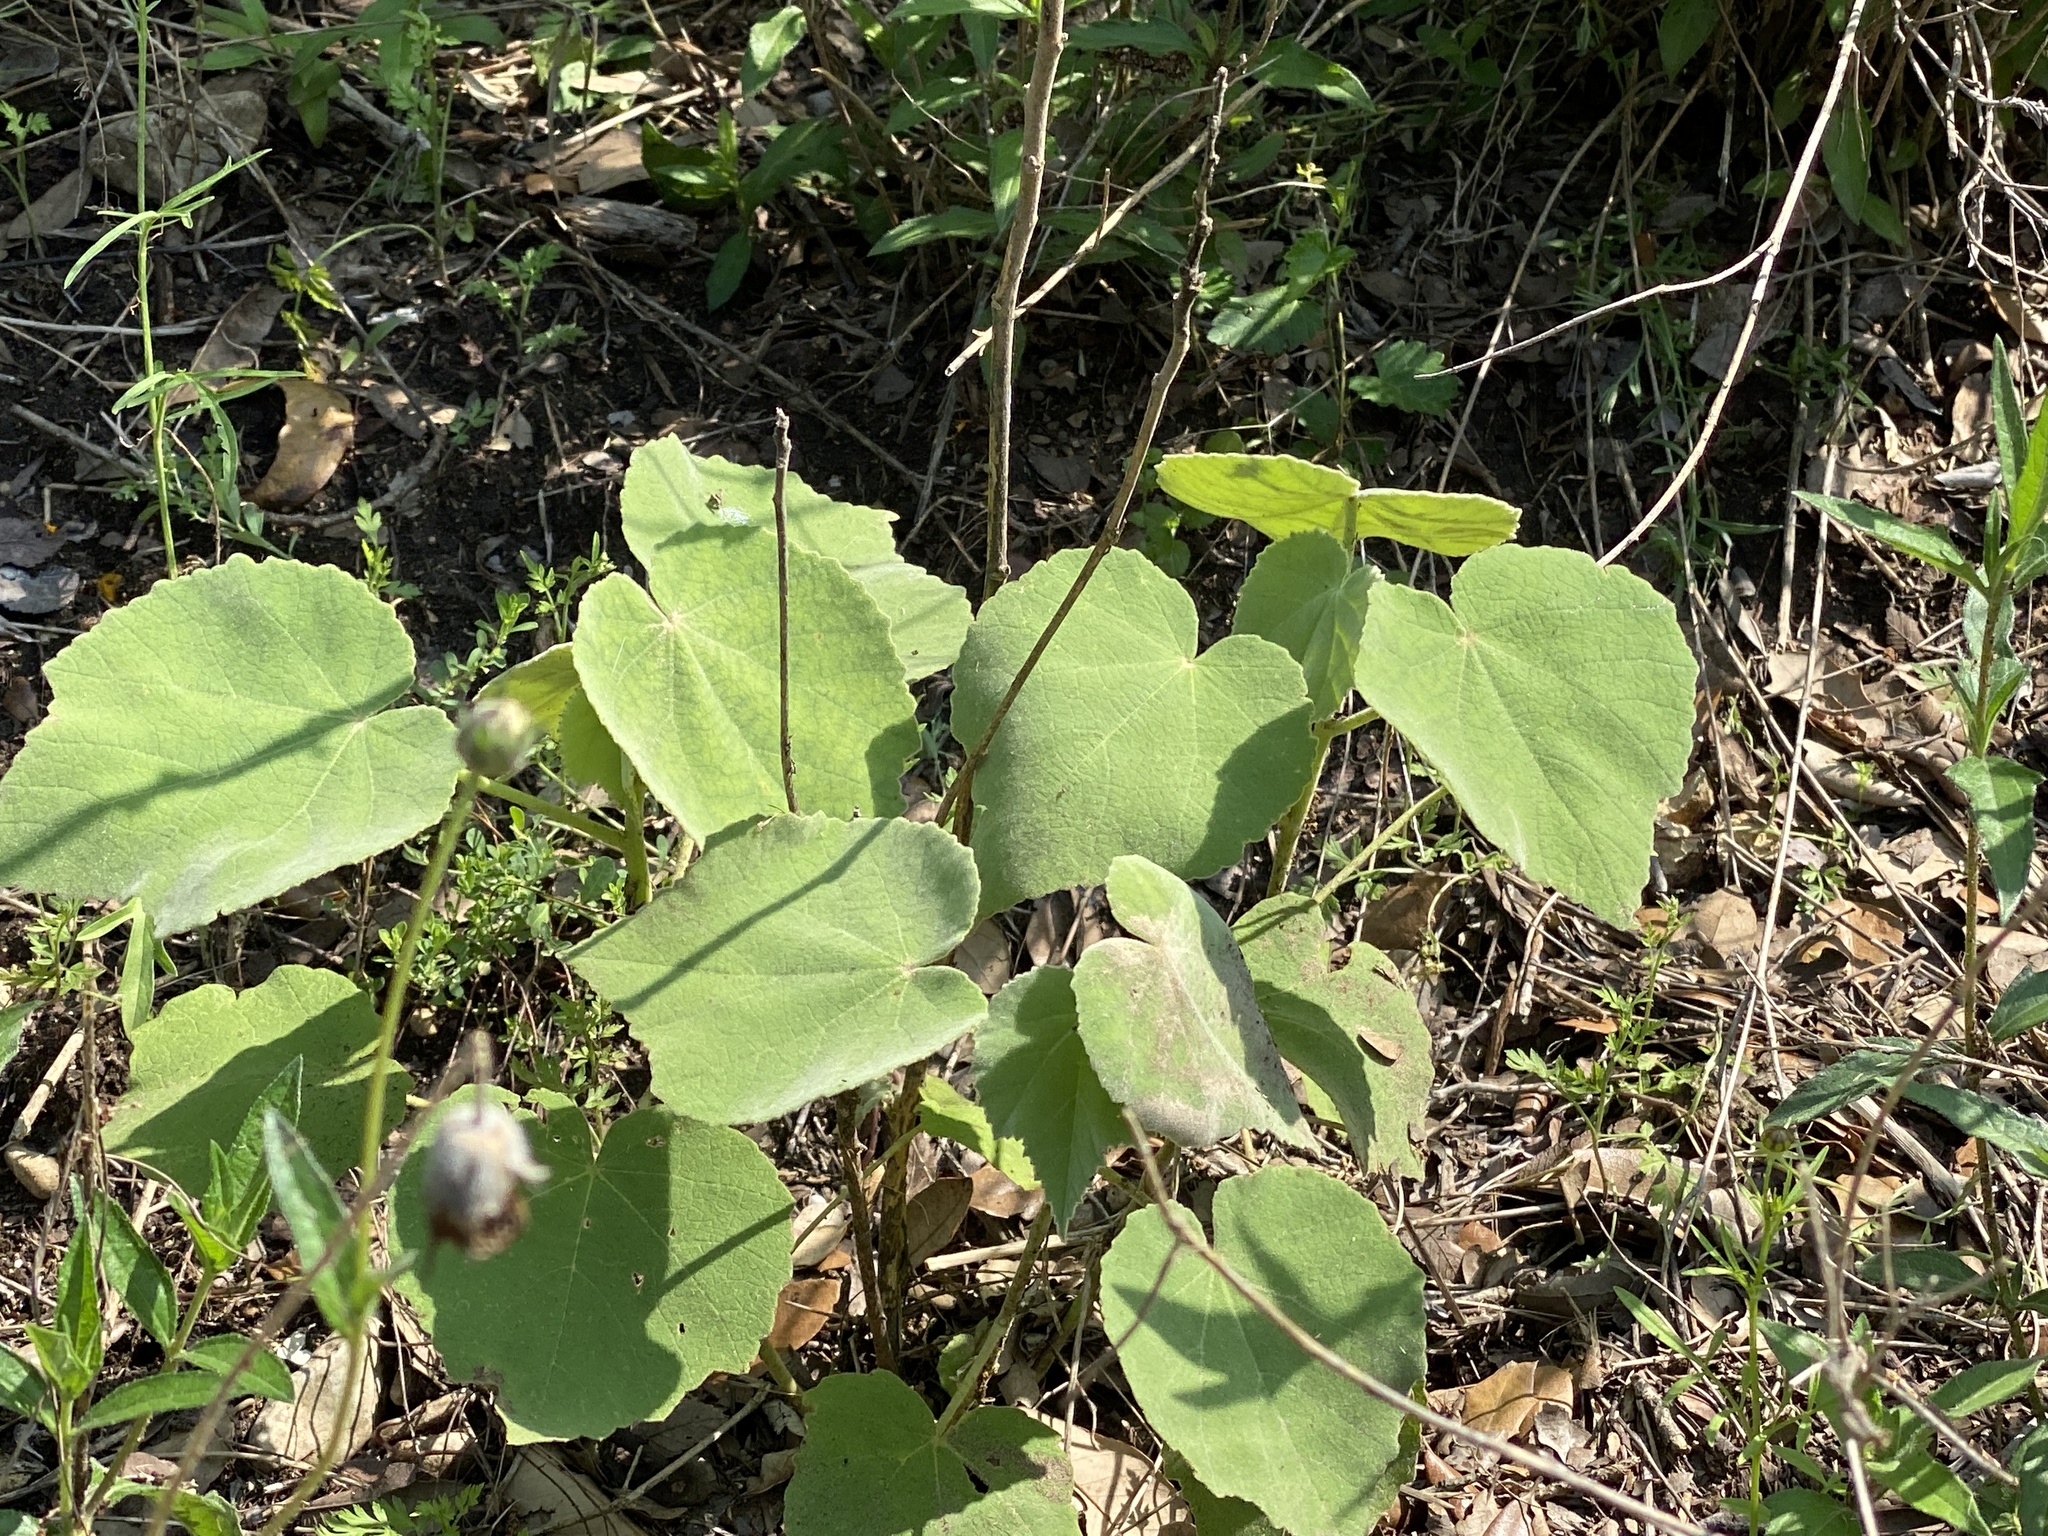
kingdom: Plantae
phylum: Tracheophyta
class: Magnoliopsida
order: Malvales
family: Malvaceae
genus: Allowissadula
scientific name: Allowissadula holosericea
